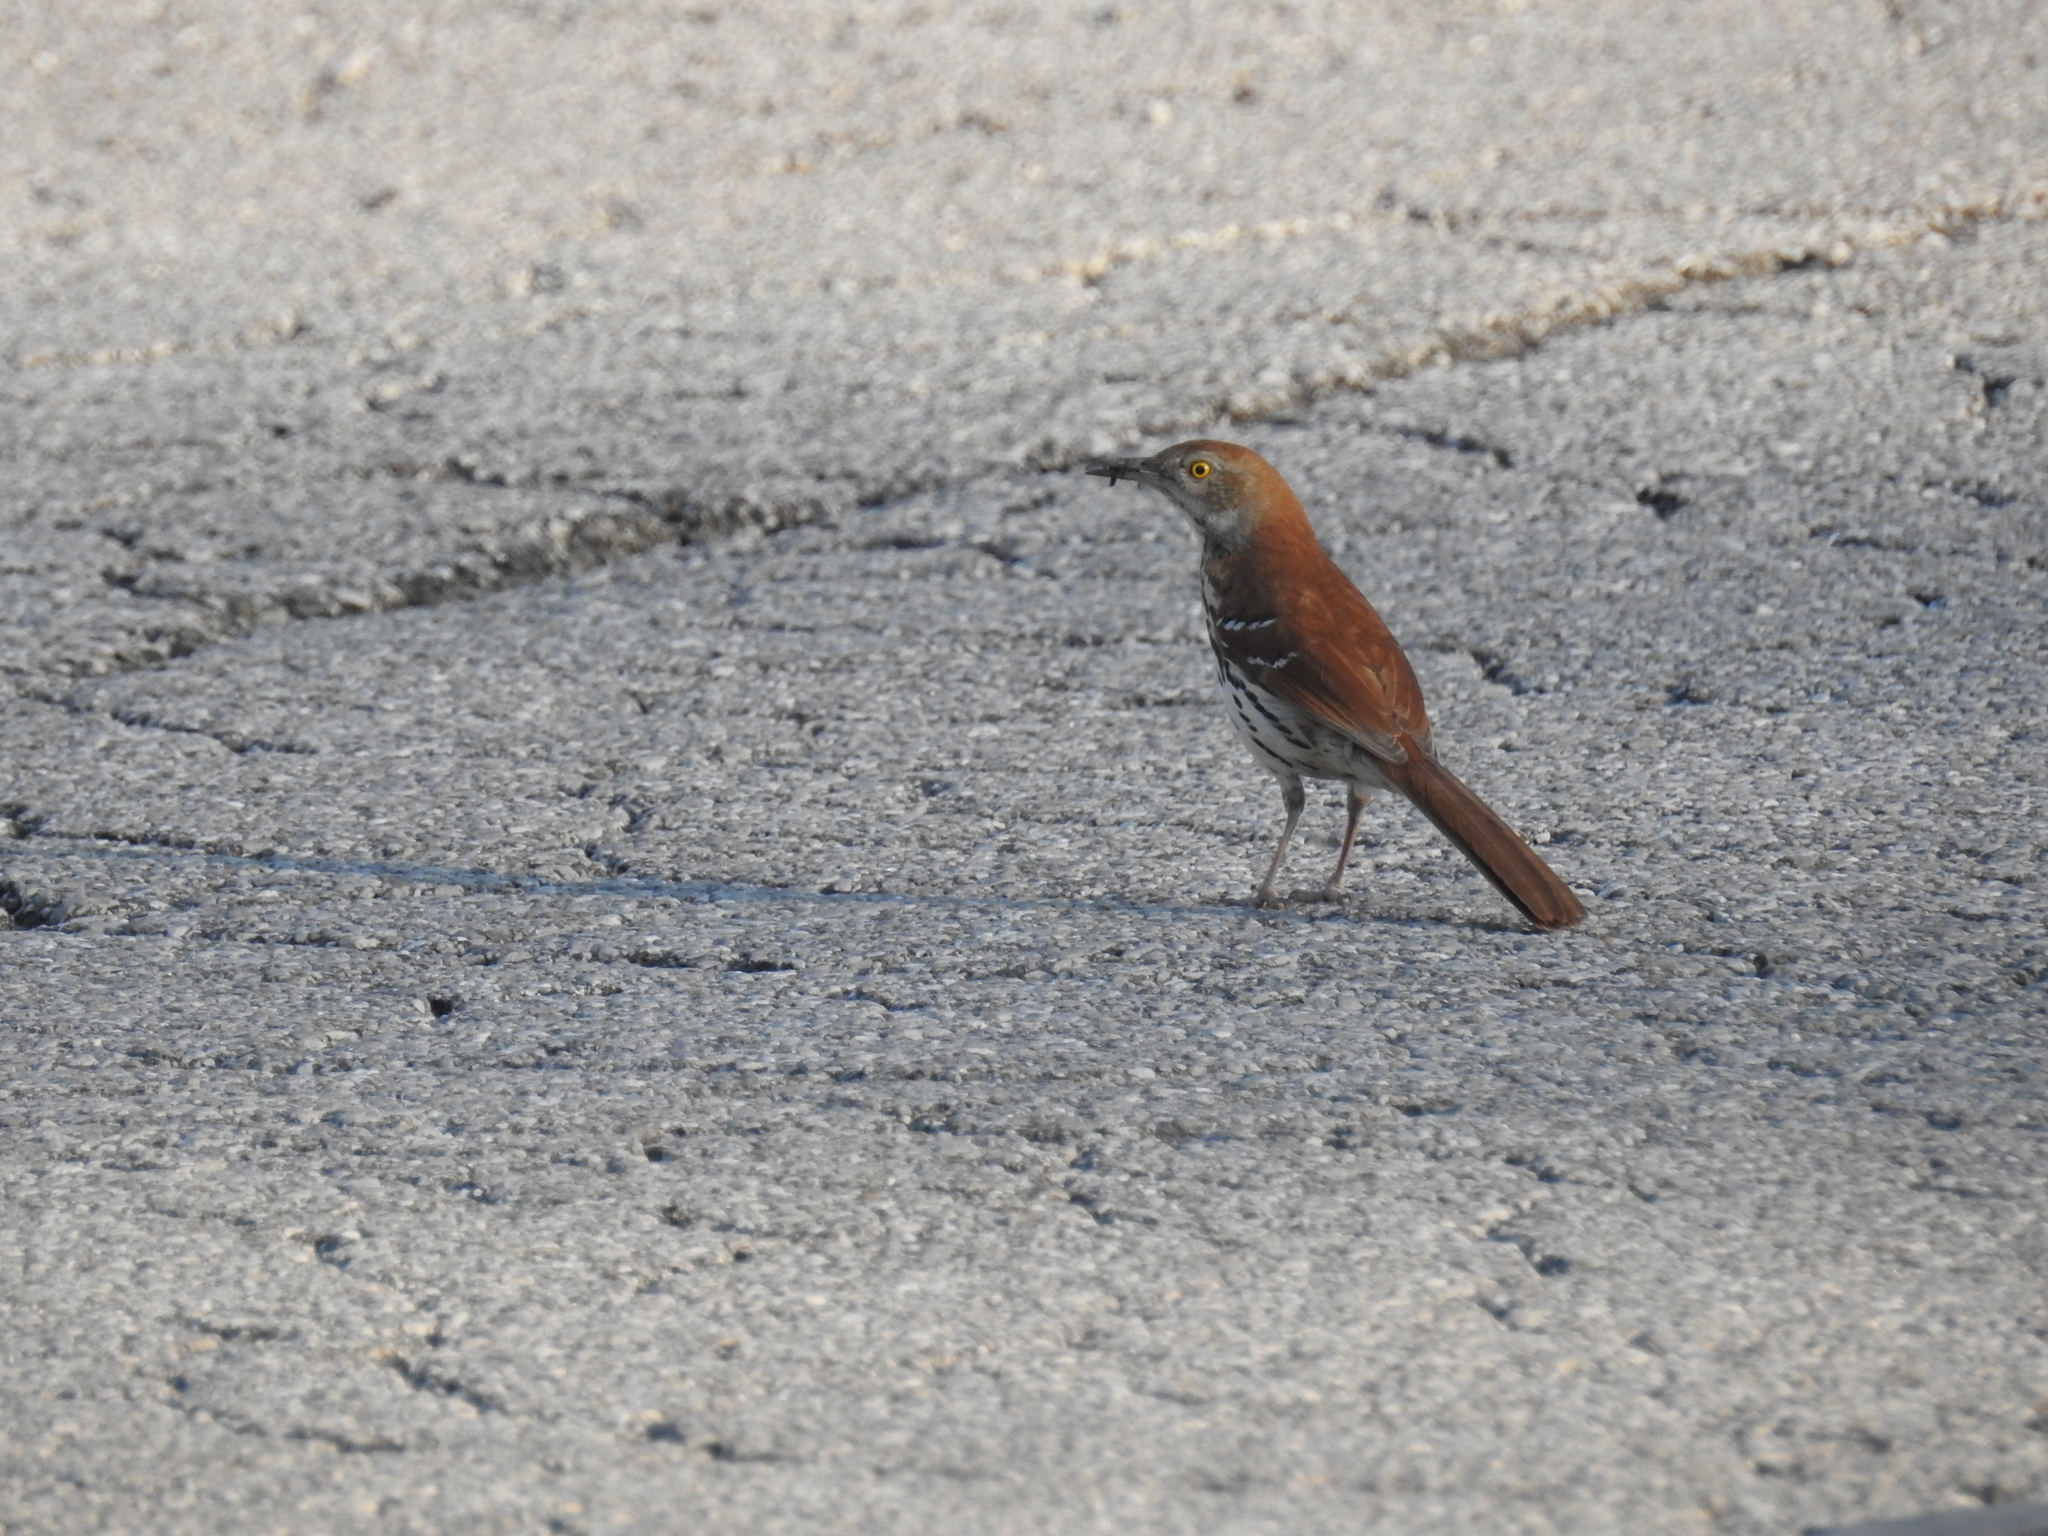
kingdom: Animalia
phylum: Chordata
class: Aves
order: Passeriformes
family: Mimidae
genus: Toxostoma
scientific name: Toxostoma rufum
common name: Brown thrasher
